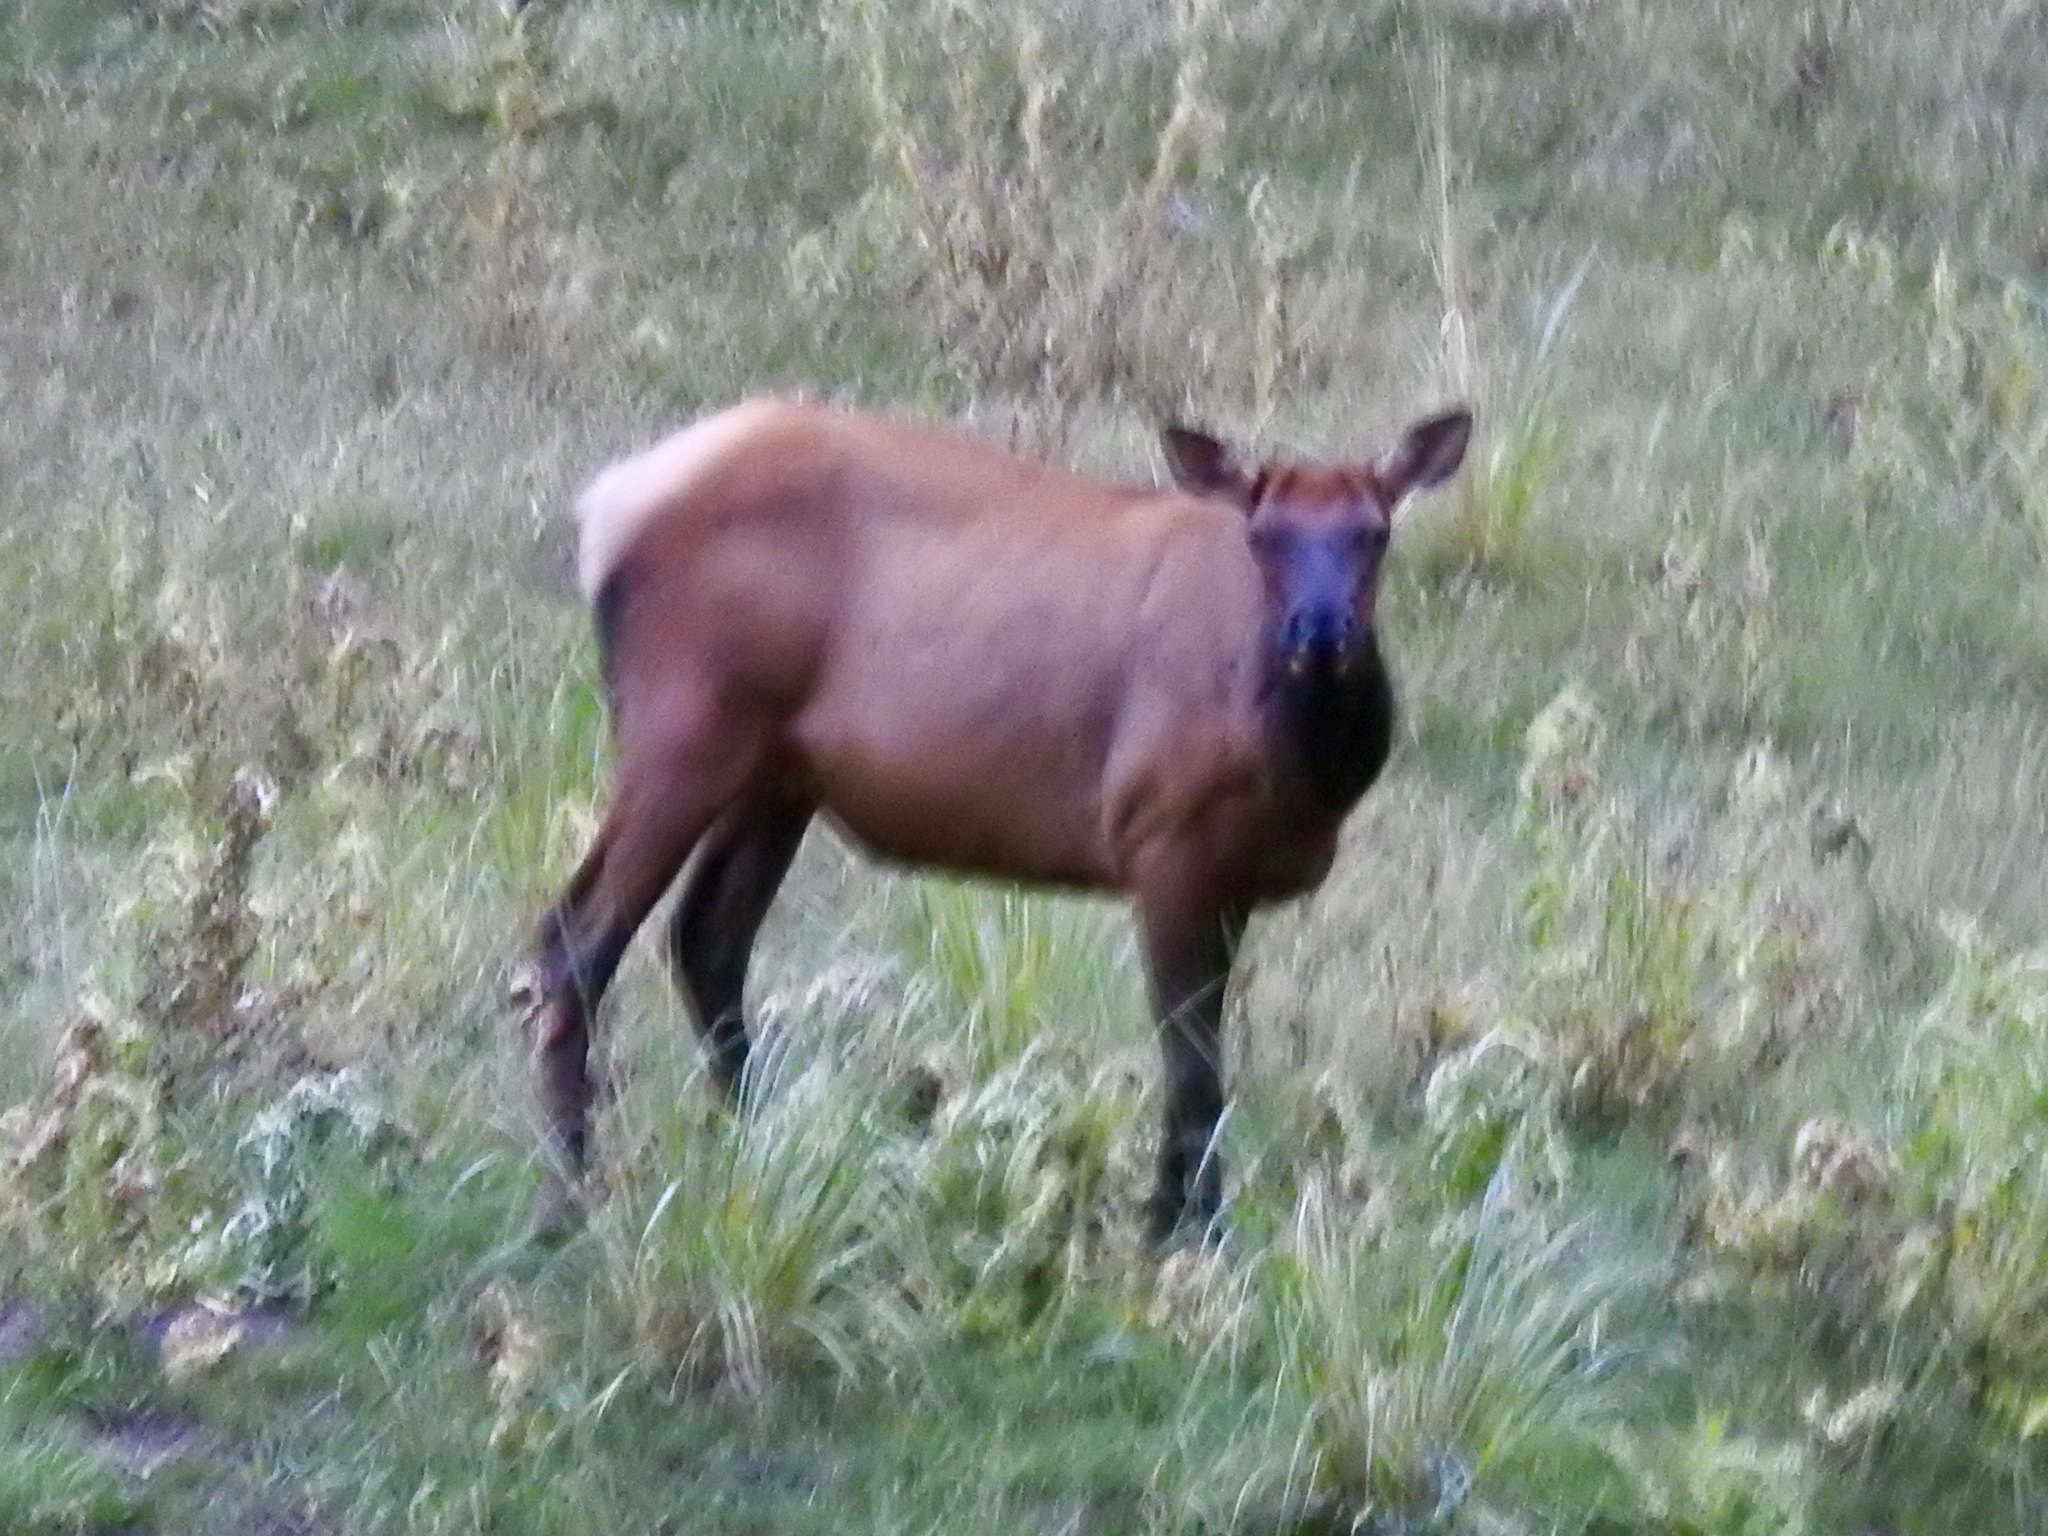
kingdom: Animalia
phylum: Chordata
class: Mammalia
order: Artiodactyla
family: Cervidae
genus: Cervus
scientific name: Cervus elaphus
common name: Red deer
